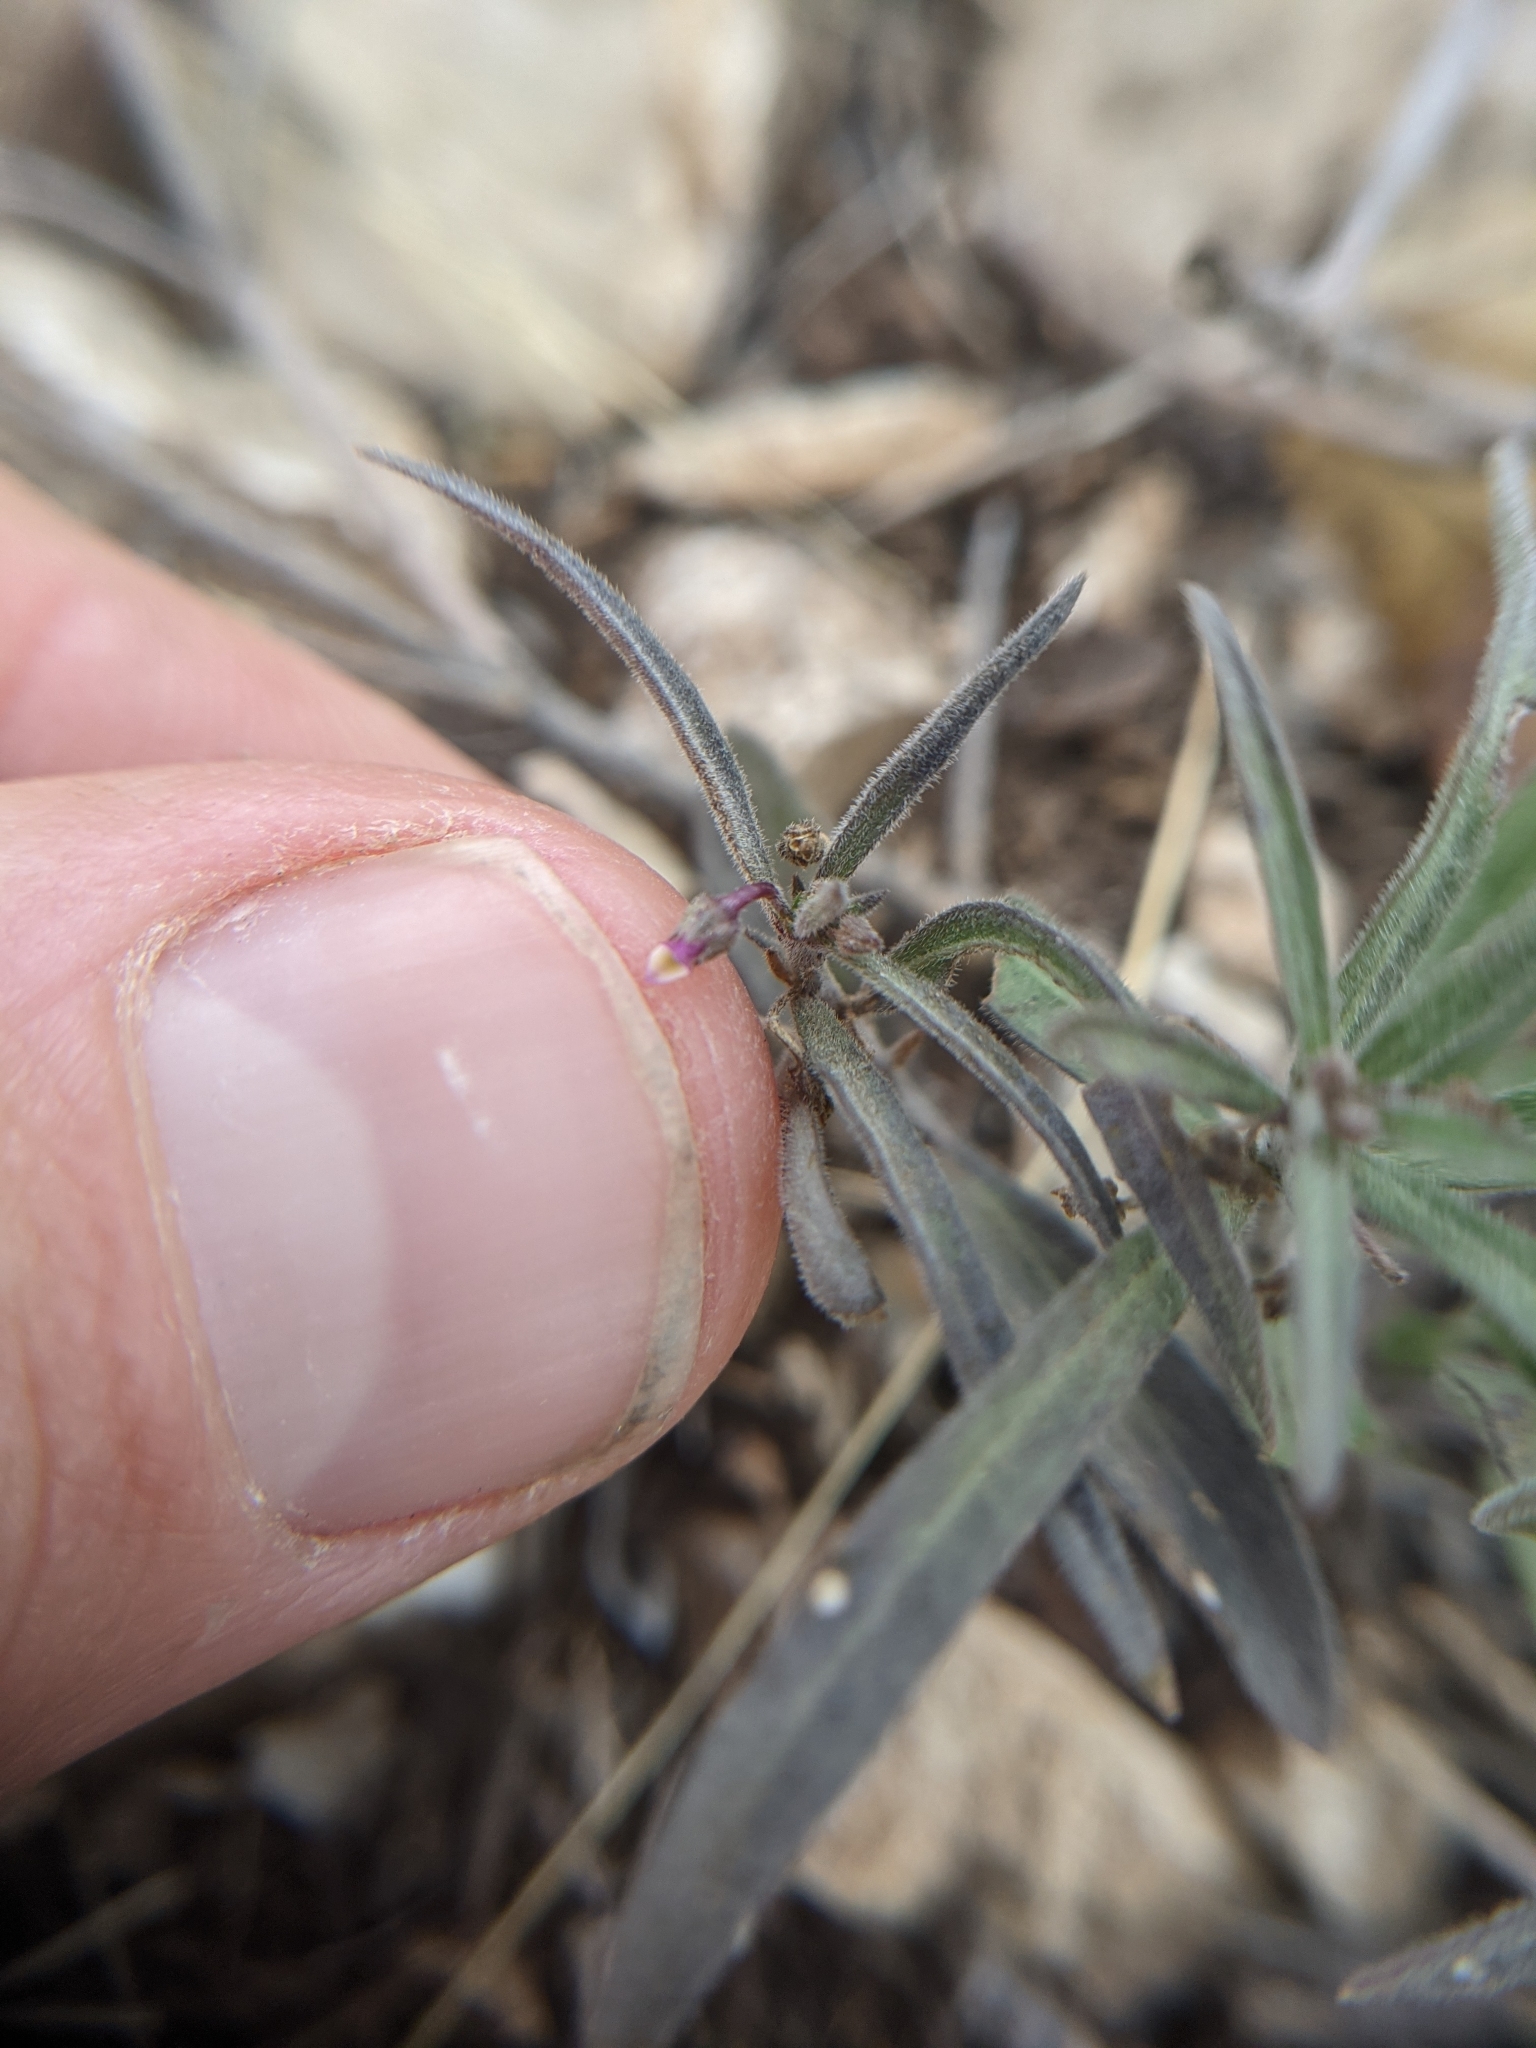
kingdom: Plantae
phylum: Tracheophyta
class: Magnoliopsida
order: Malpighiales
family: Violaceae
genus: Pombalia
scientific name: Pombalia verticillata
